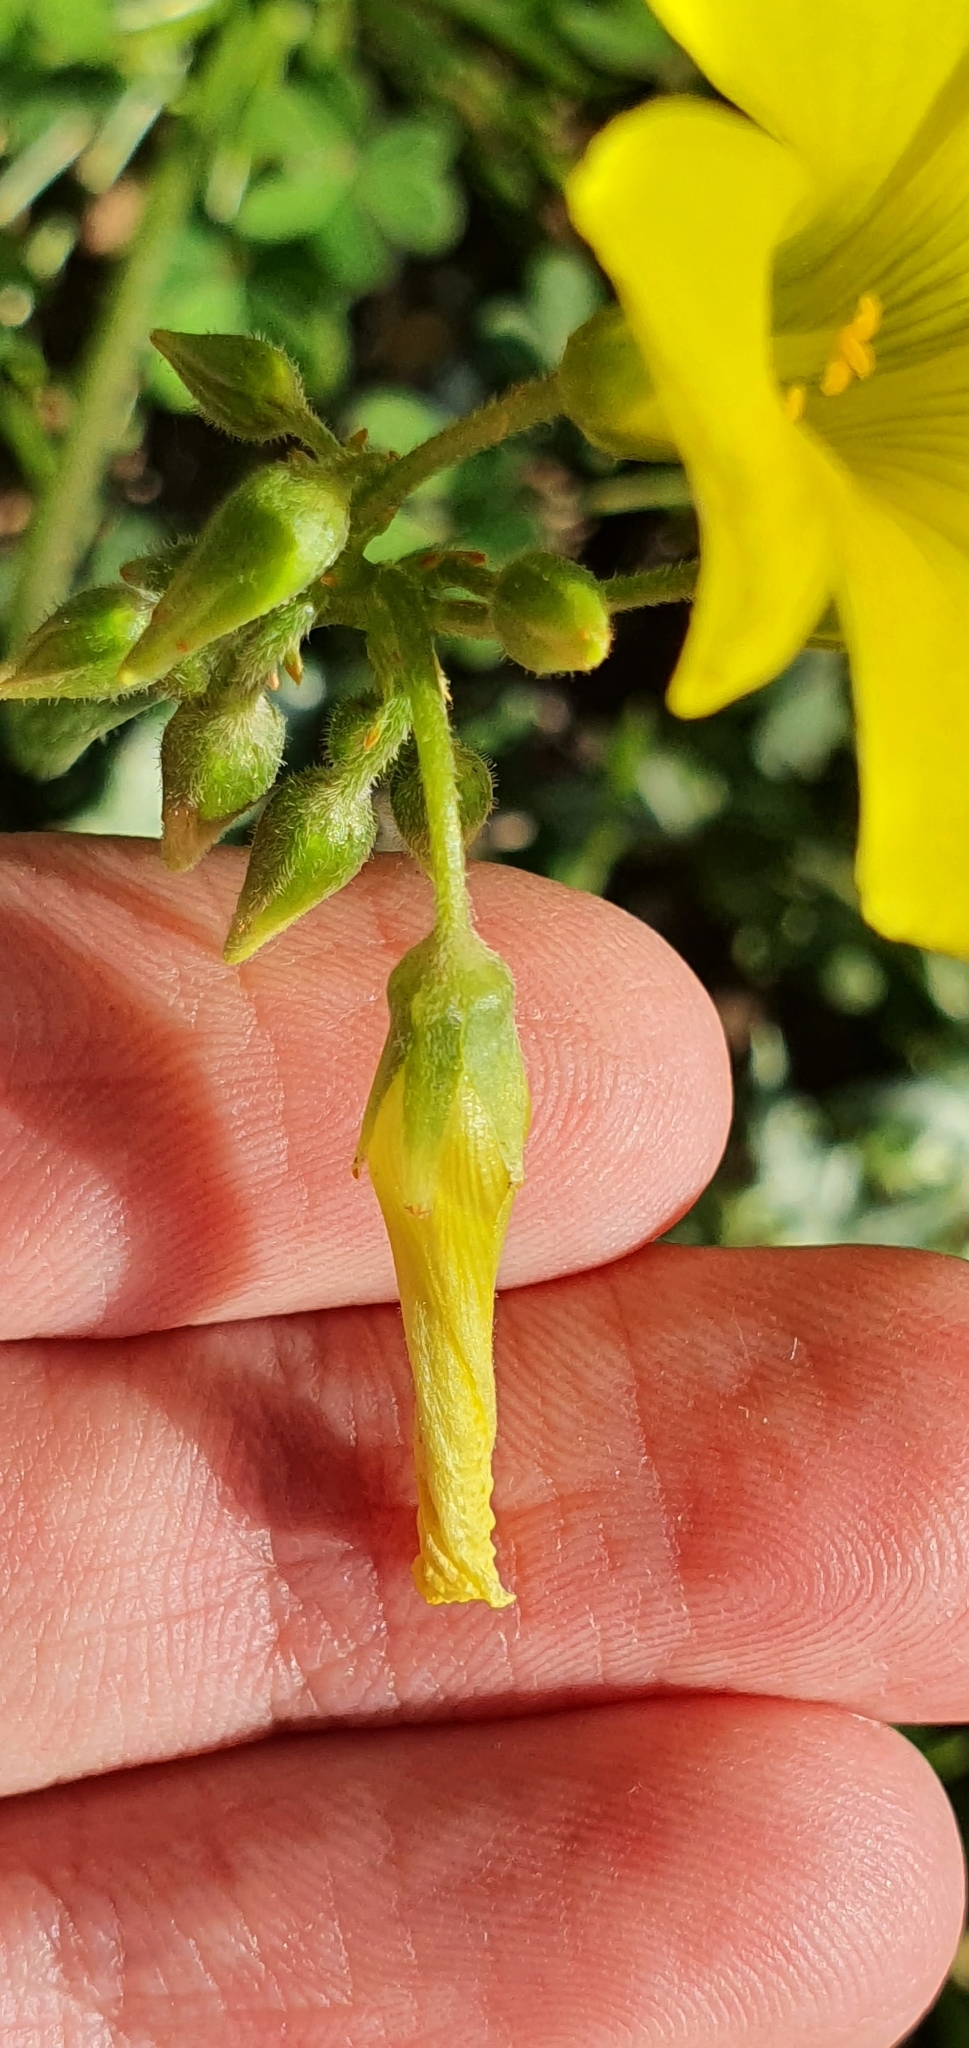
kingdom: Plantae
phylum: Tracheophyta
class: Magnoliopsida
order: Oxalidales
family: Oxalidaceae
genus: Oxalis
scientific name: Oxalis pes-caprae
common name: Bermuda-buttercup
